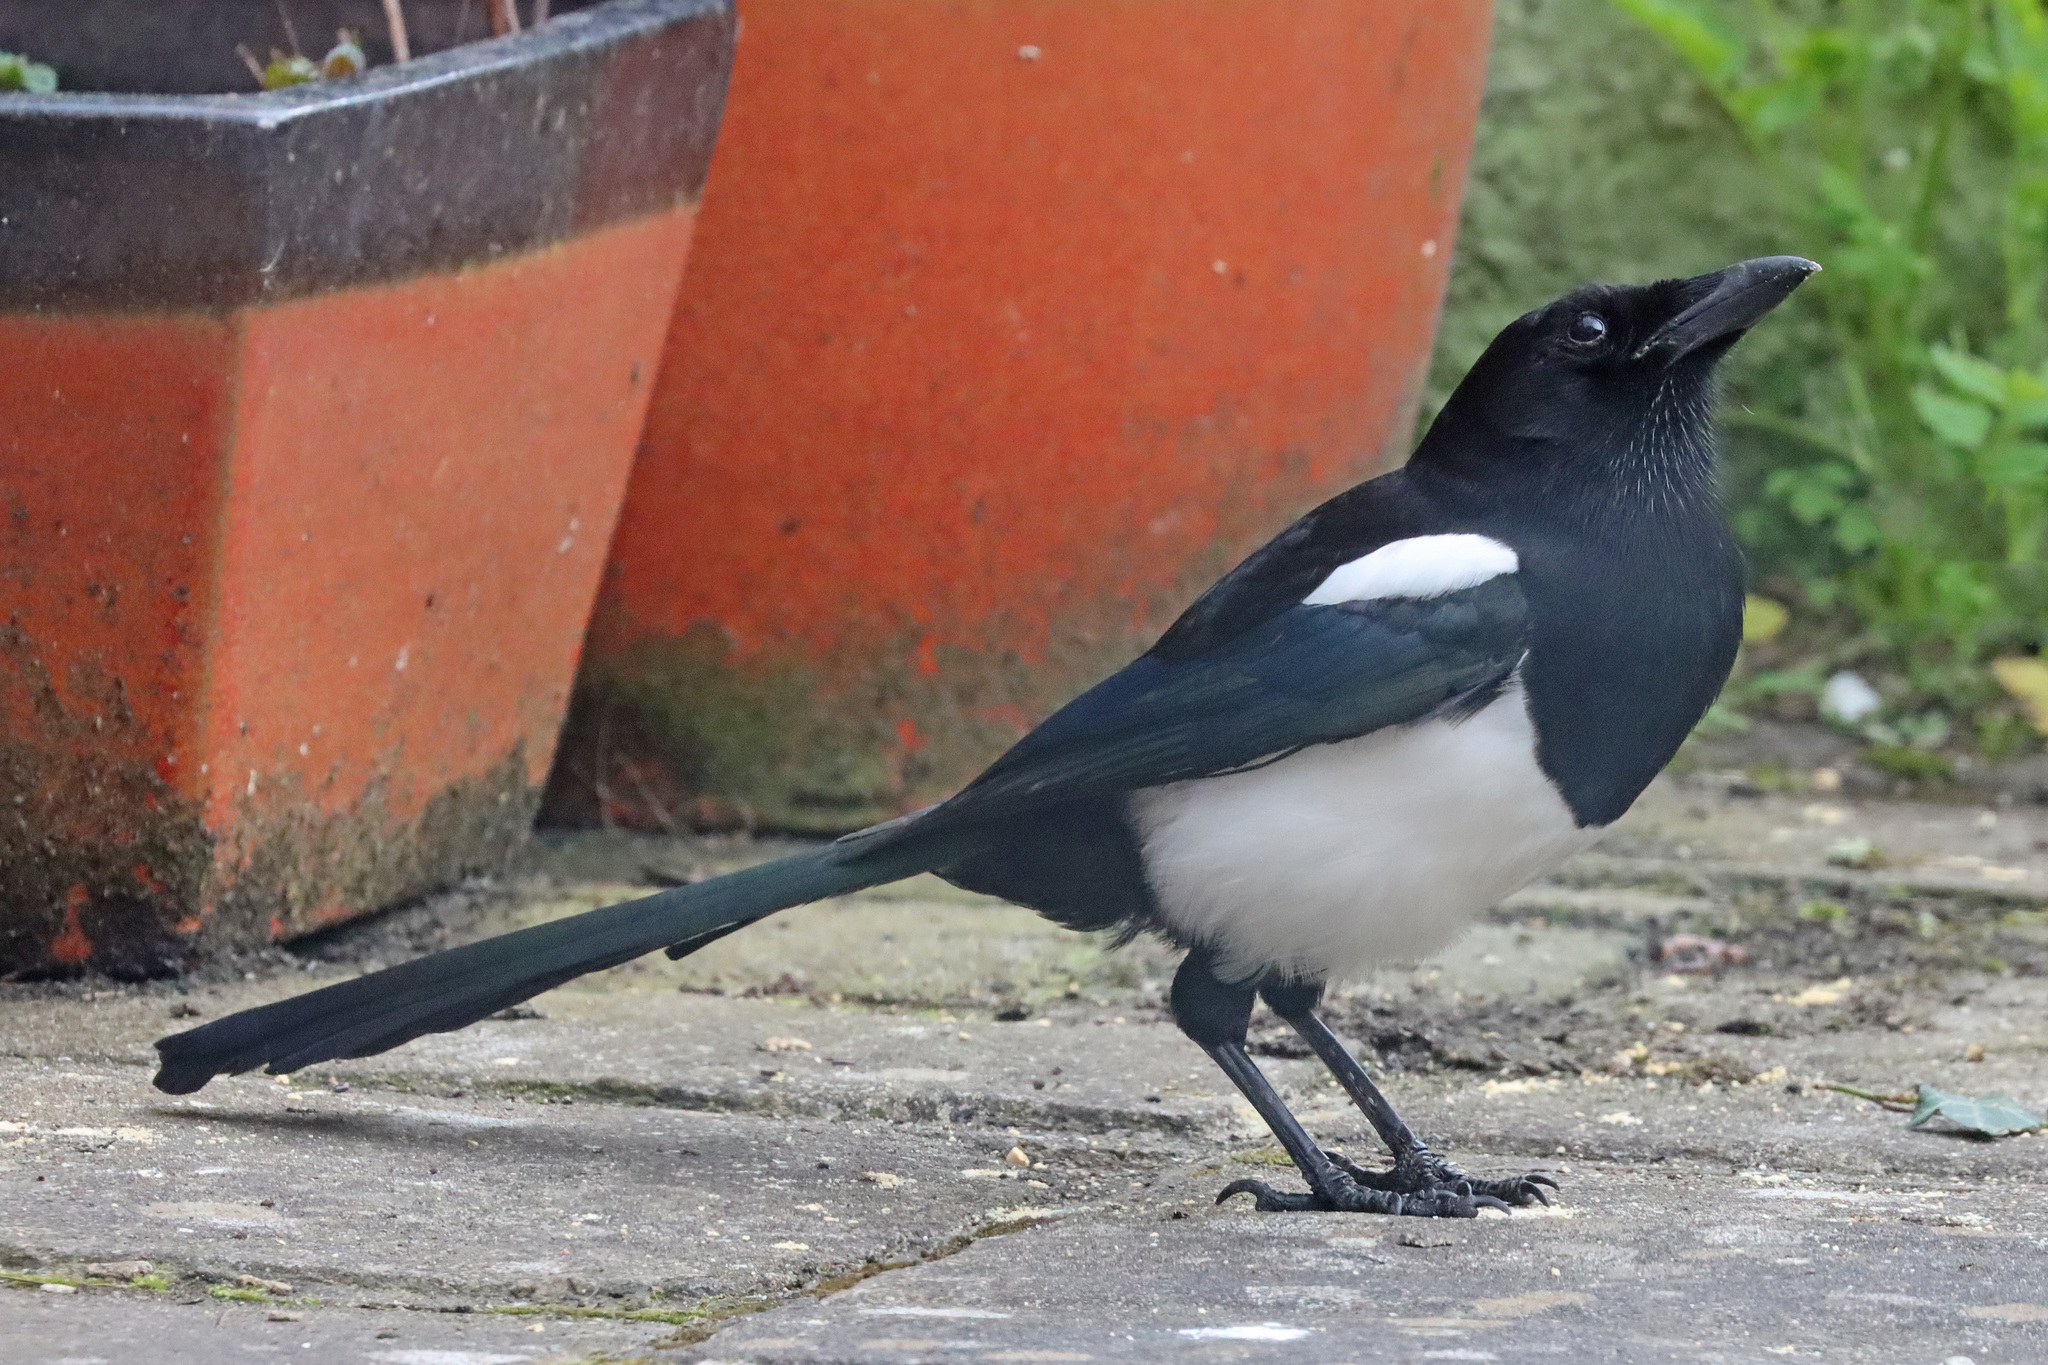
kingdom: Animalia
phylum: Chordata
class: Aves
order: Passeriformes
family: Corvidae
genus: Pica
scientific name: Pica pica
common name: Eurasian magpie
